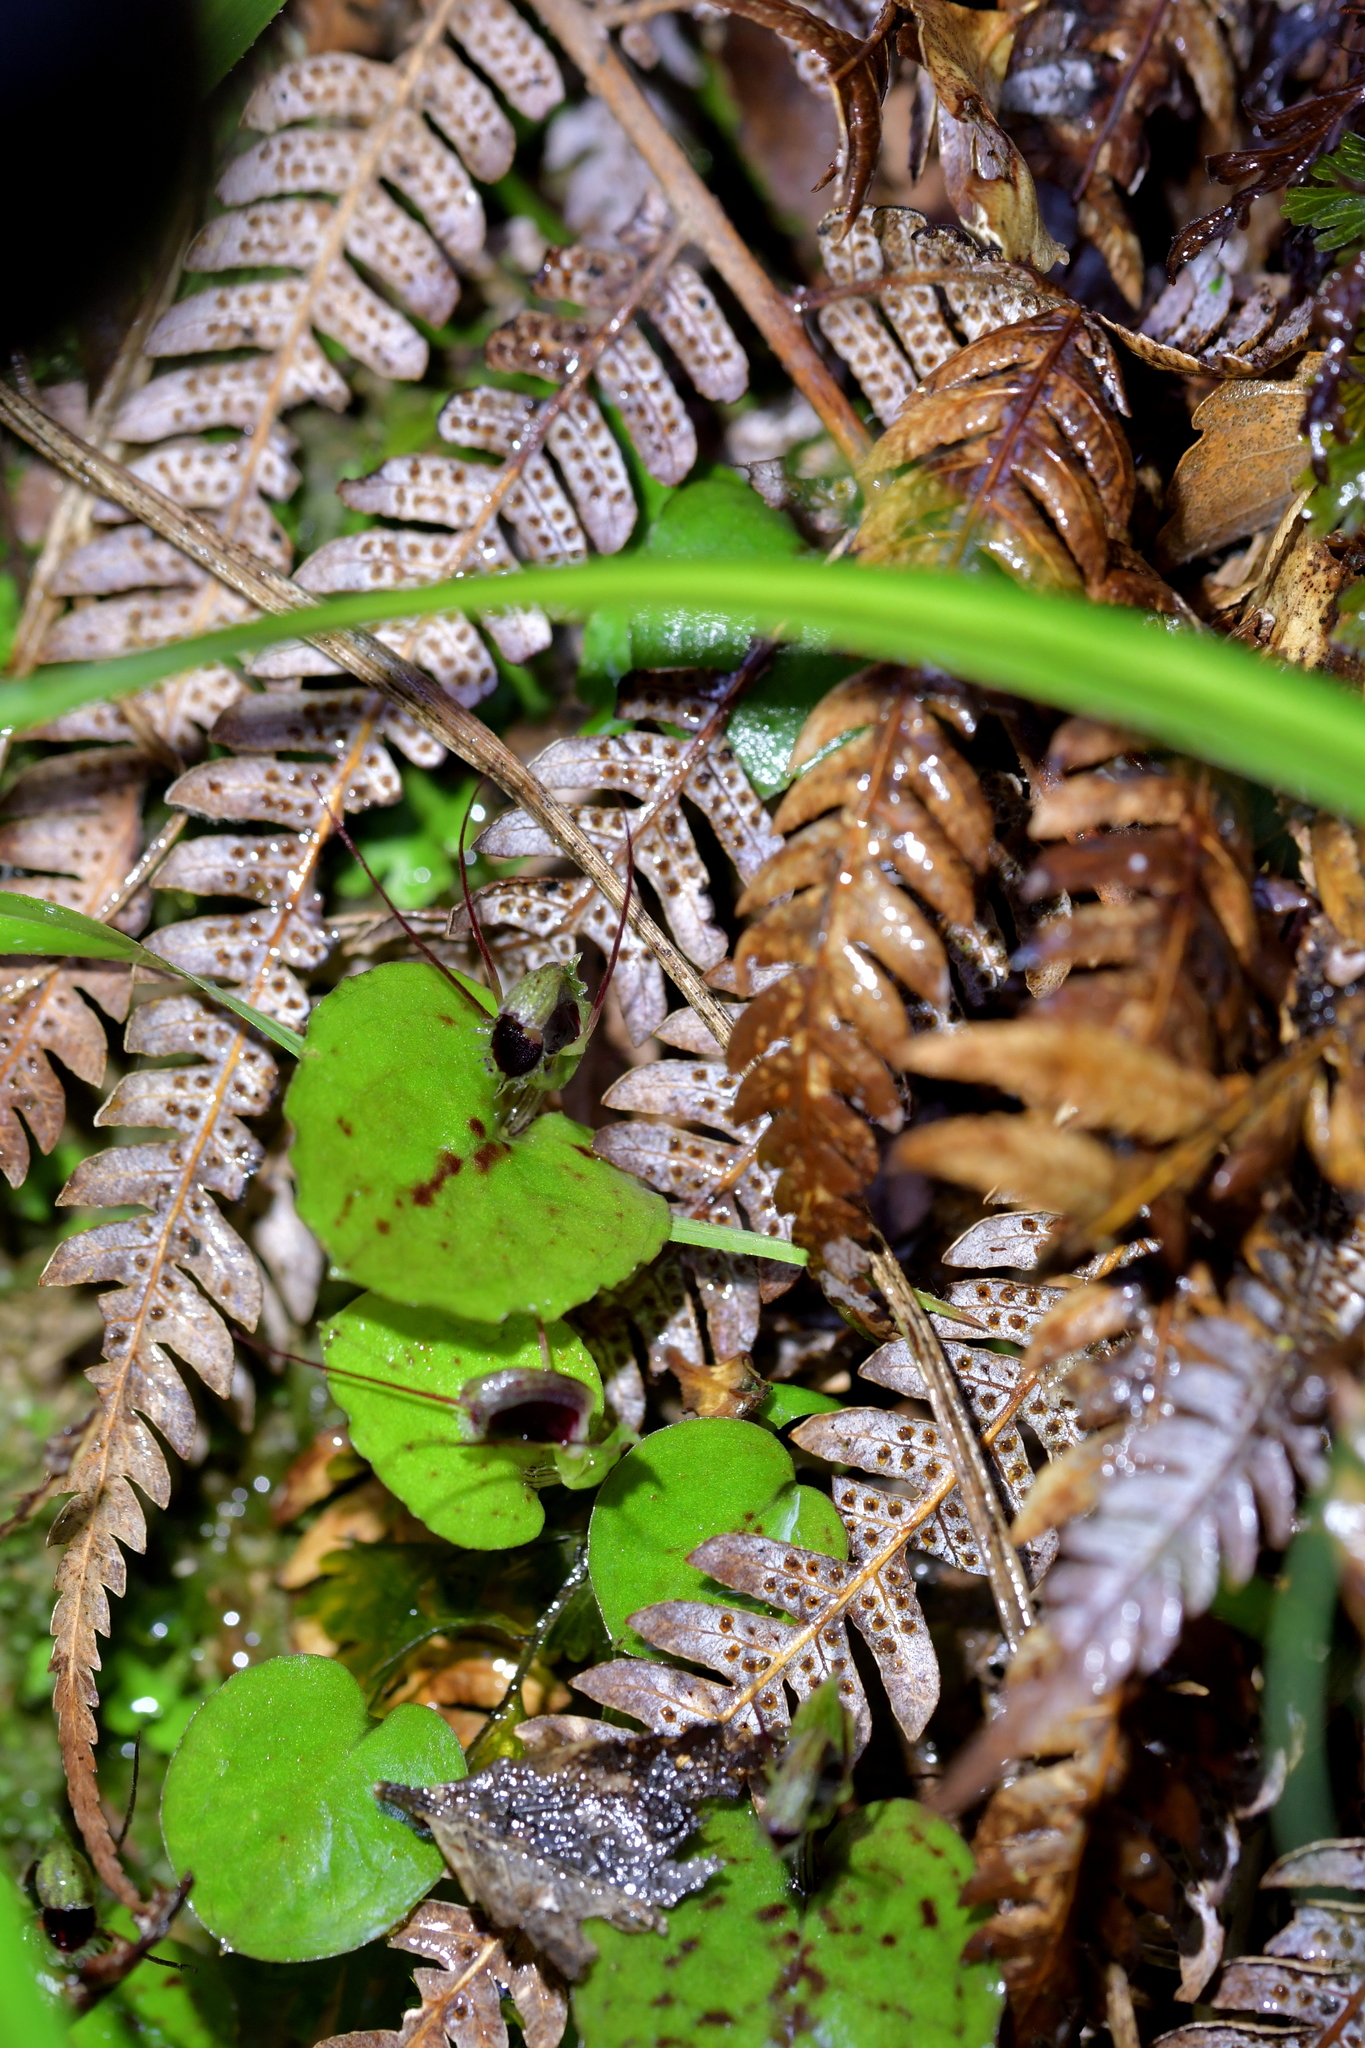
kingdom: Plantae
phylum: Tracheophyta
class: Liliopsida
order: Asparagales
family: Orchidaceae
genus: Corybas
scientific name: Corybas oblongus
